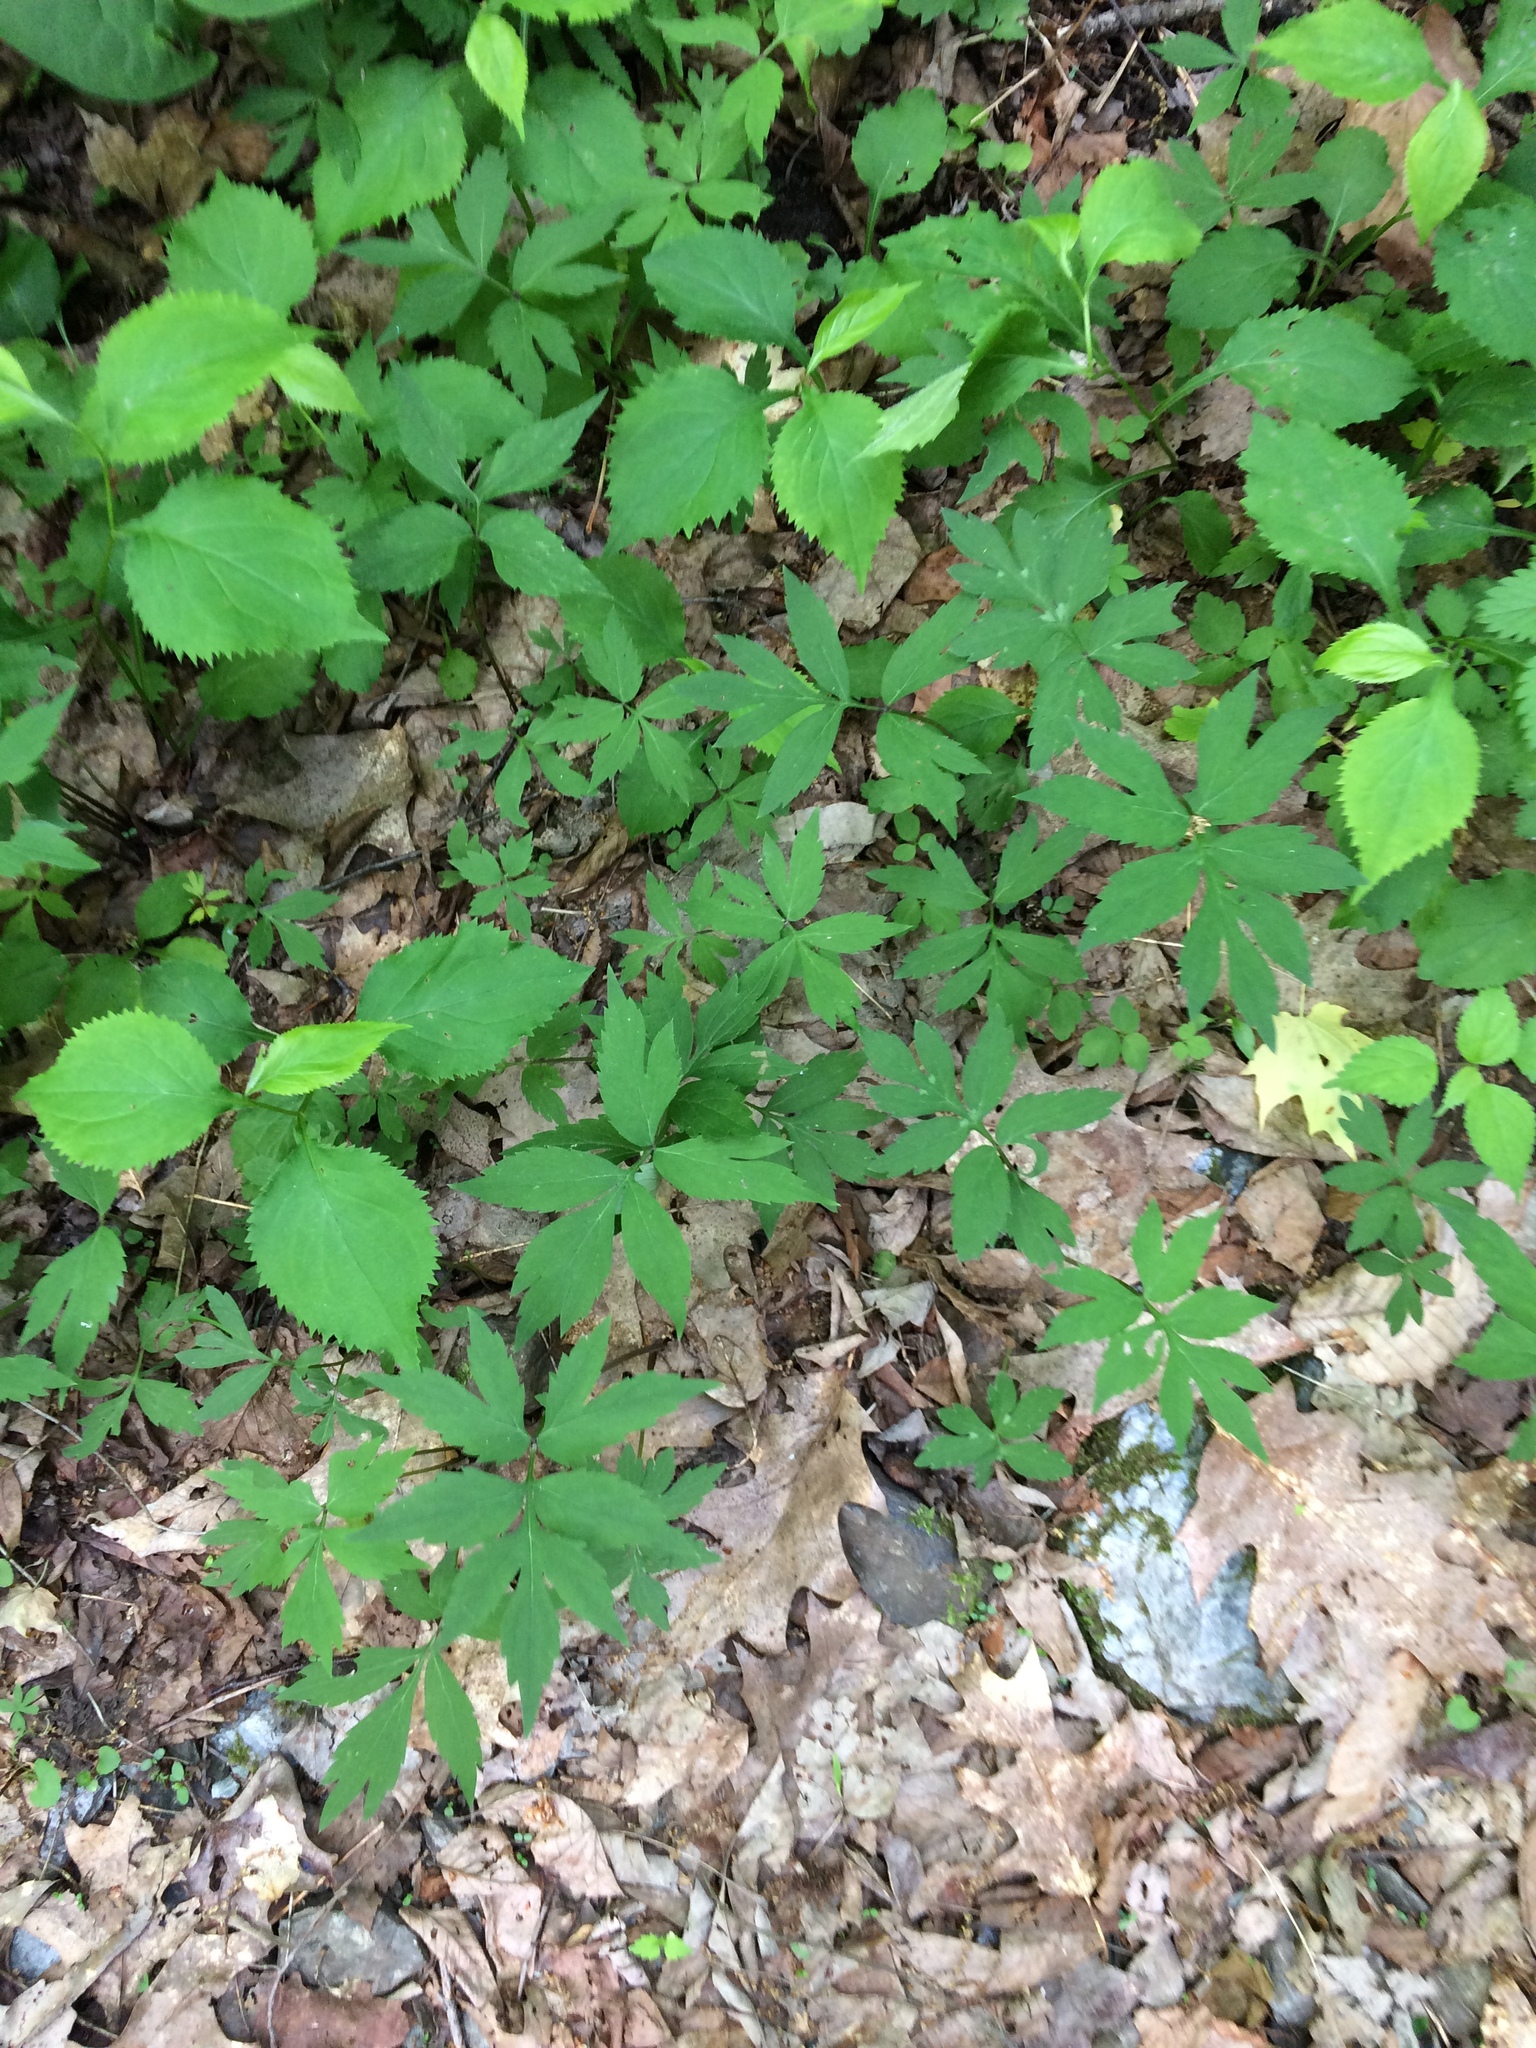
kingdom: Plantae
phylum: Tracheophyta
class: Magnoliopsida
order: Boraginales
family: Hydrophyllaceae
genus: Hydrophyllum
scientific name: Hydrophyllum virginianum
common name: Virginia waterleaf
